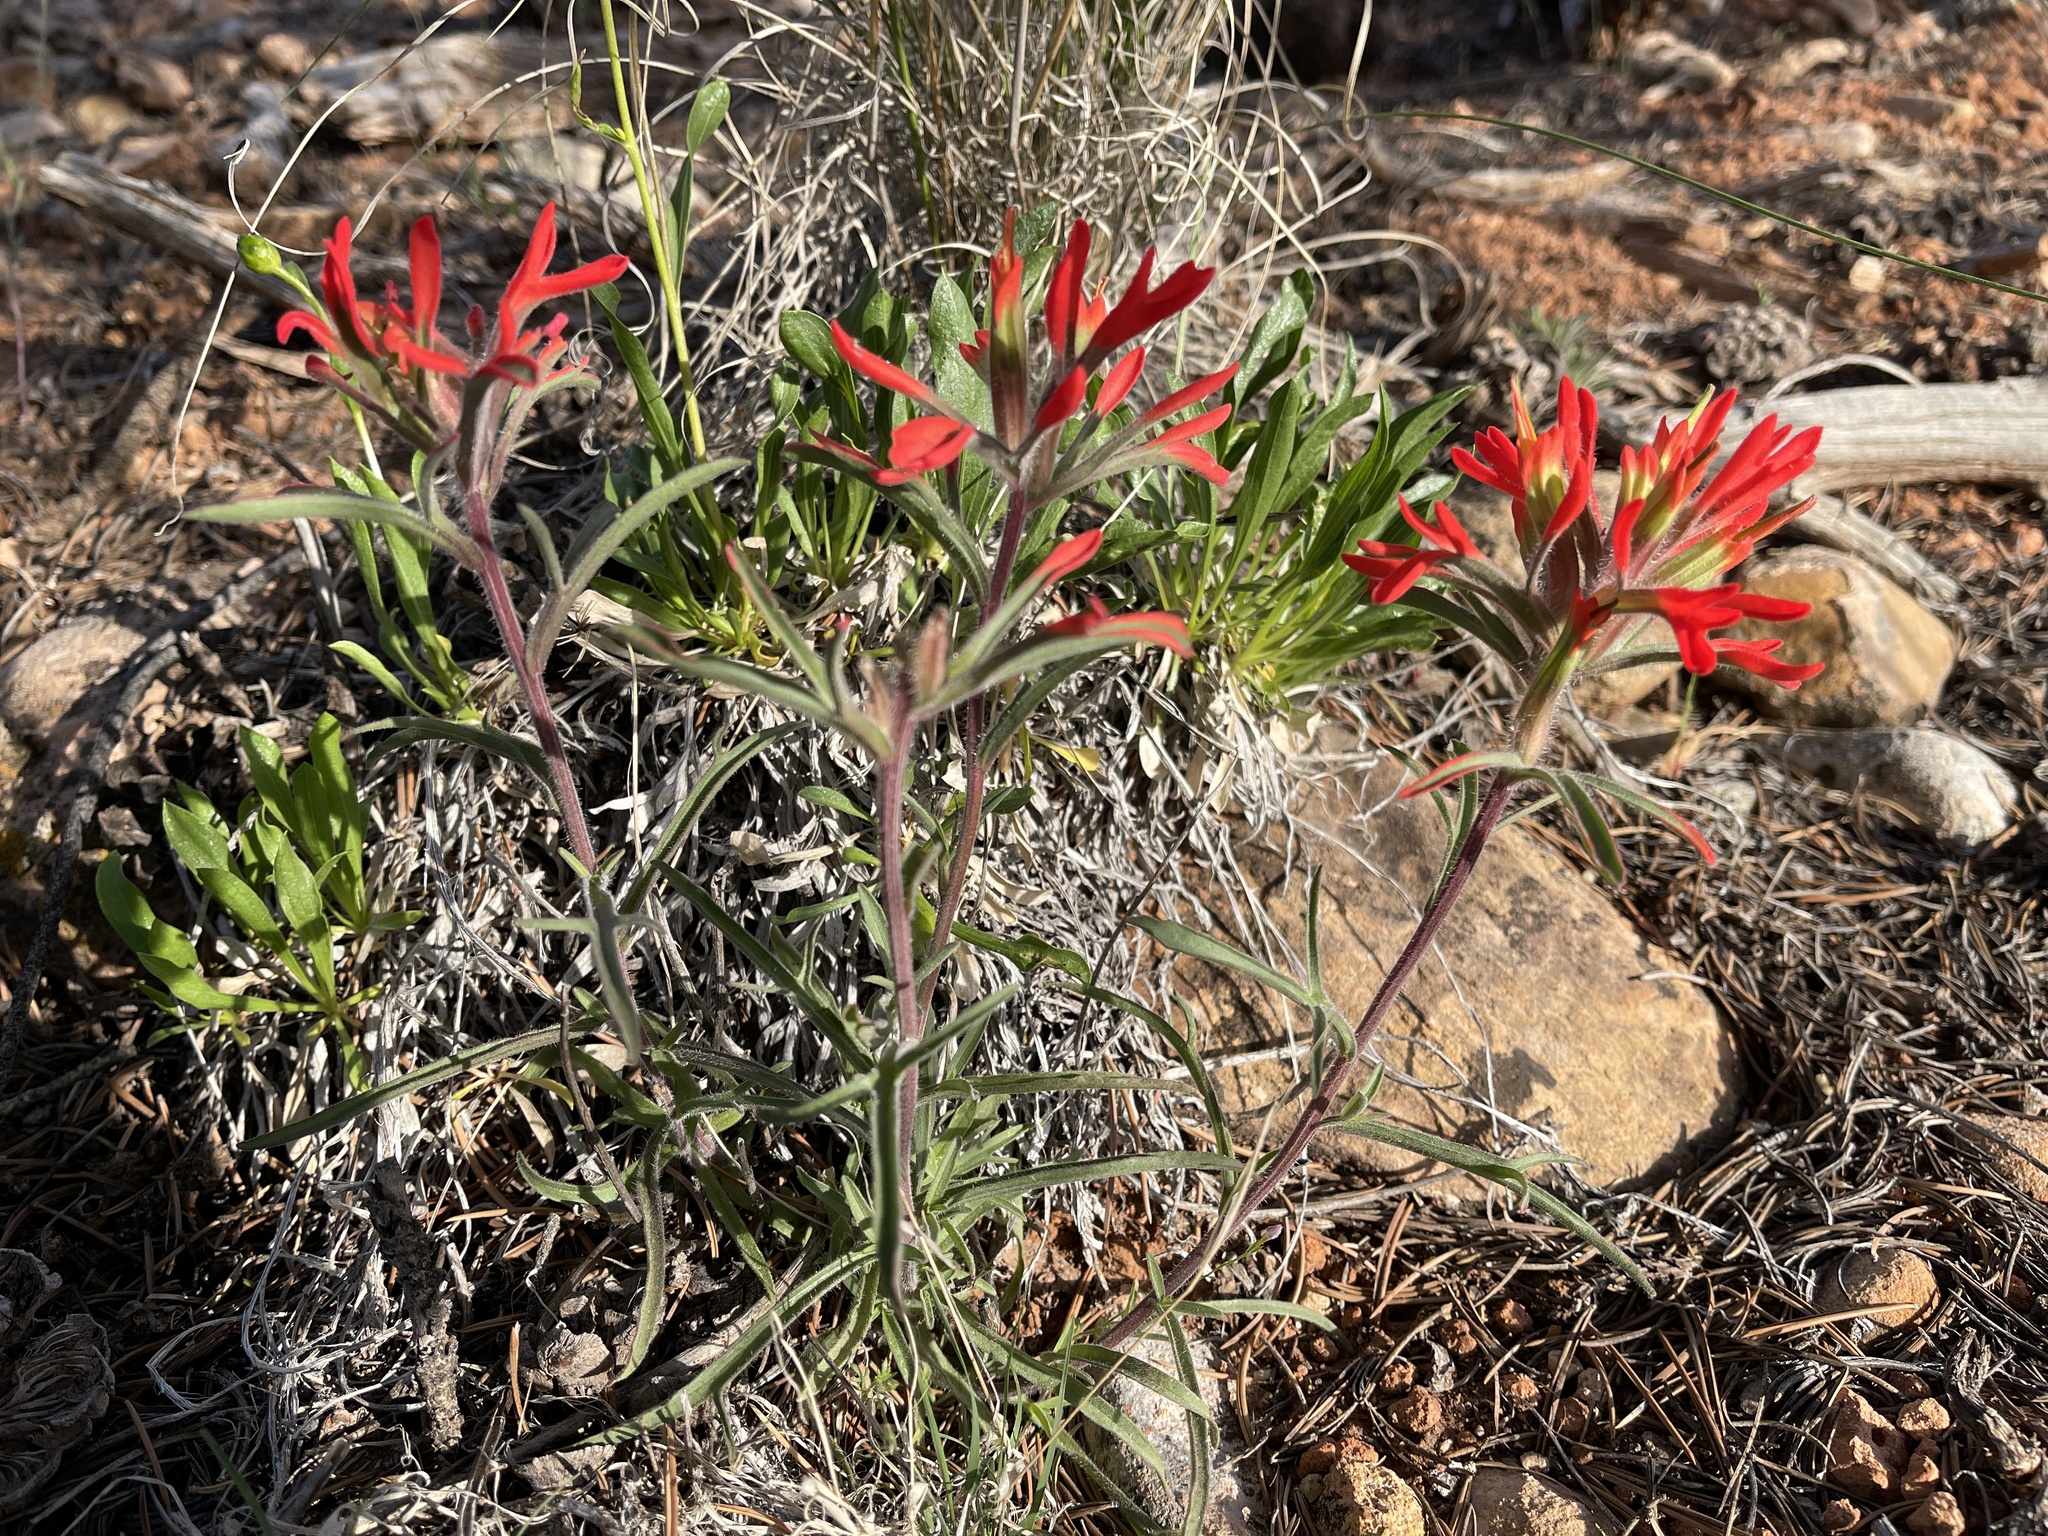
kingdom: Plantae
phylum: Tracheophyta
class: Magnoliopsida
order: Lamiales
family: Orobanchaceae
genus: Castilleja
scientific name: Castilleja chromosa
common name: Desert paintbrush
